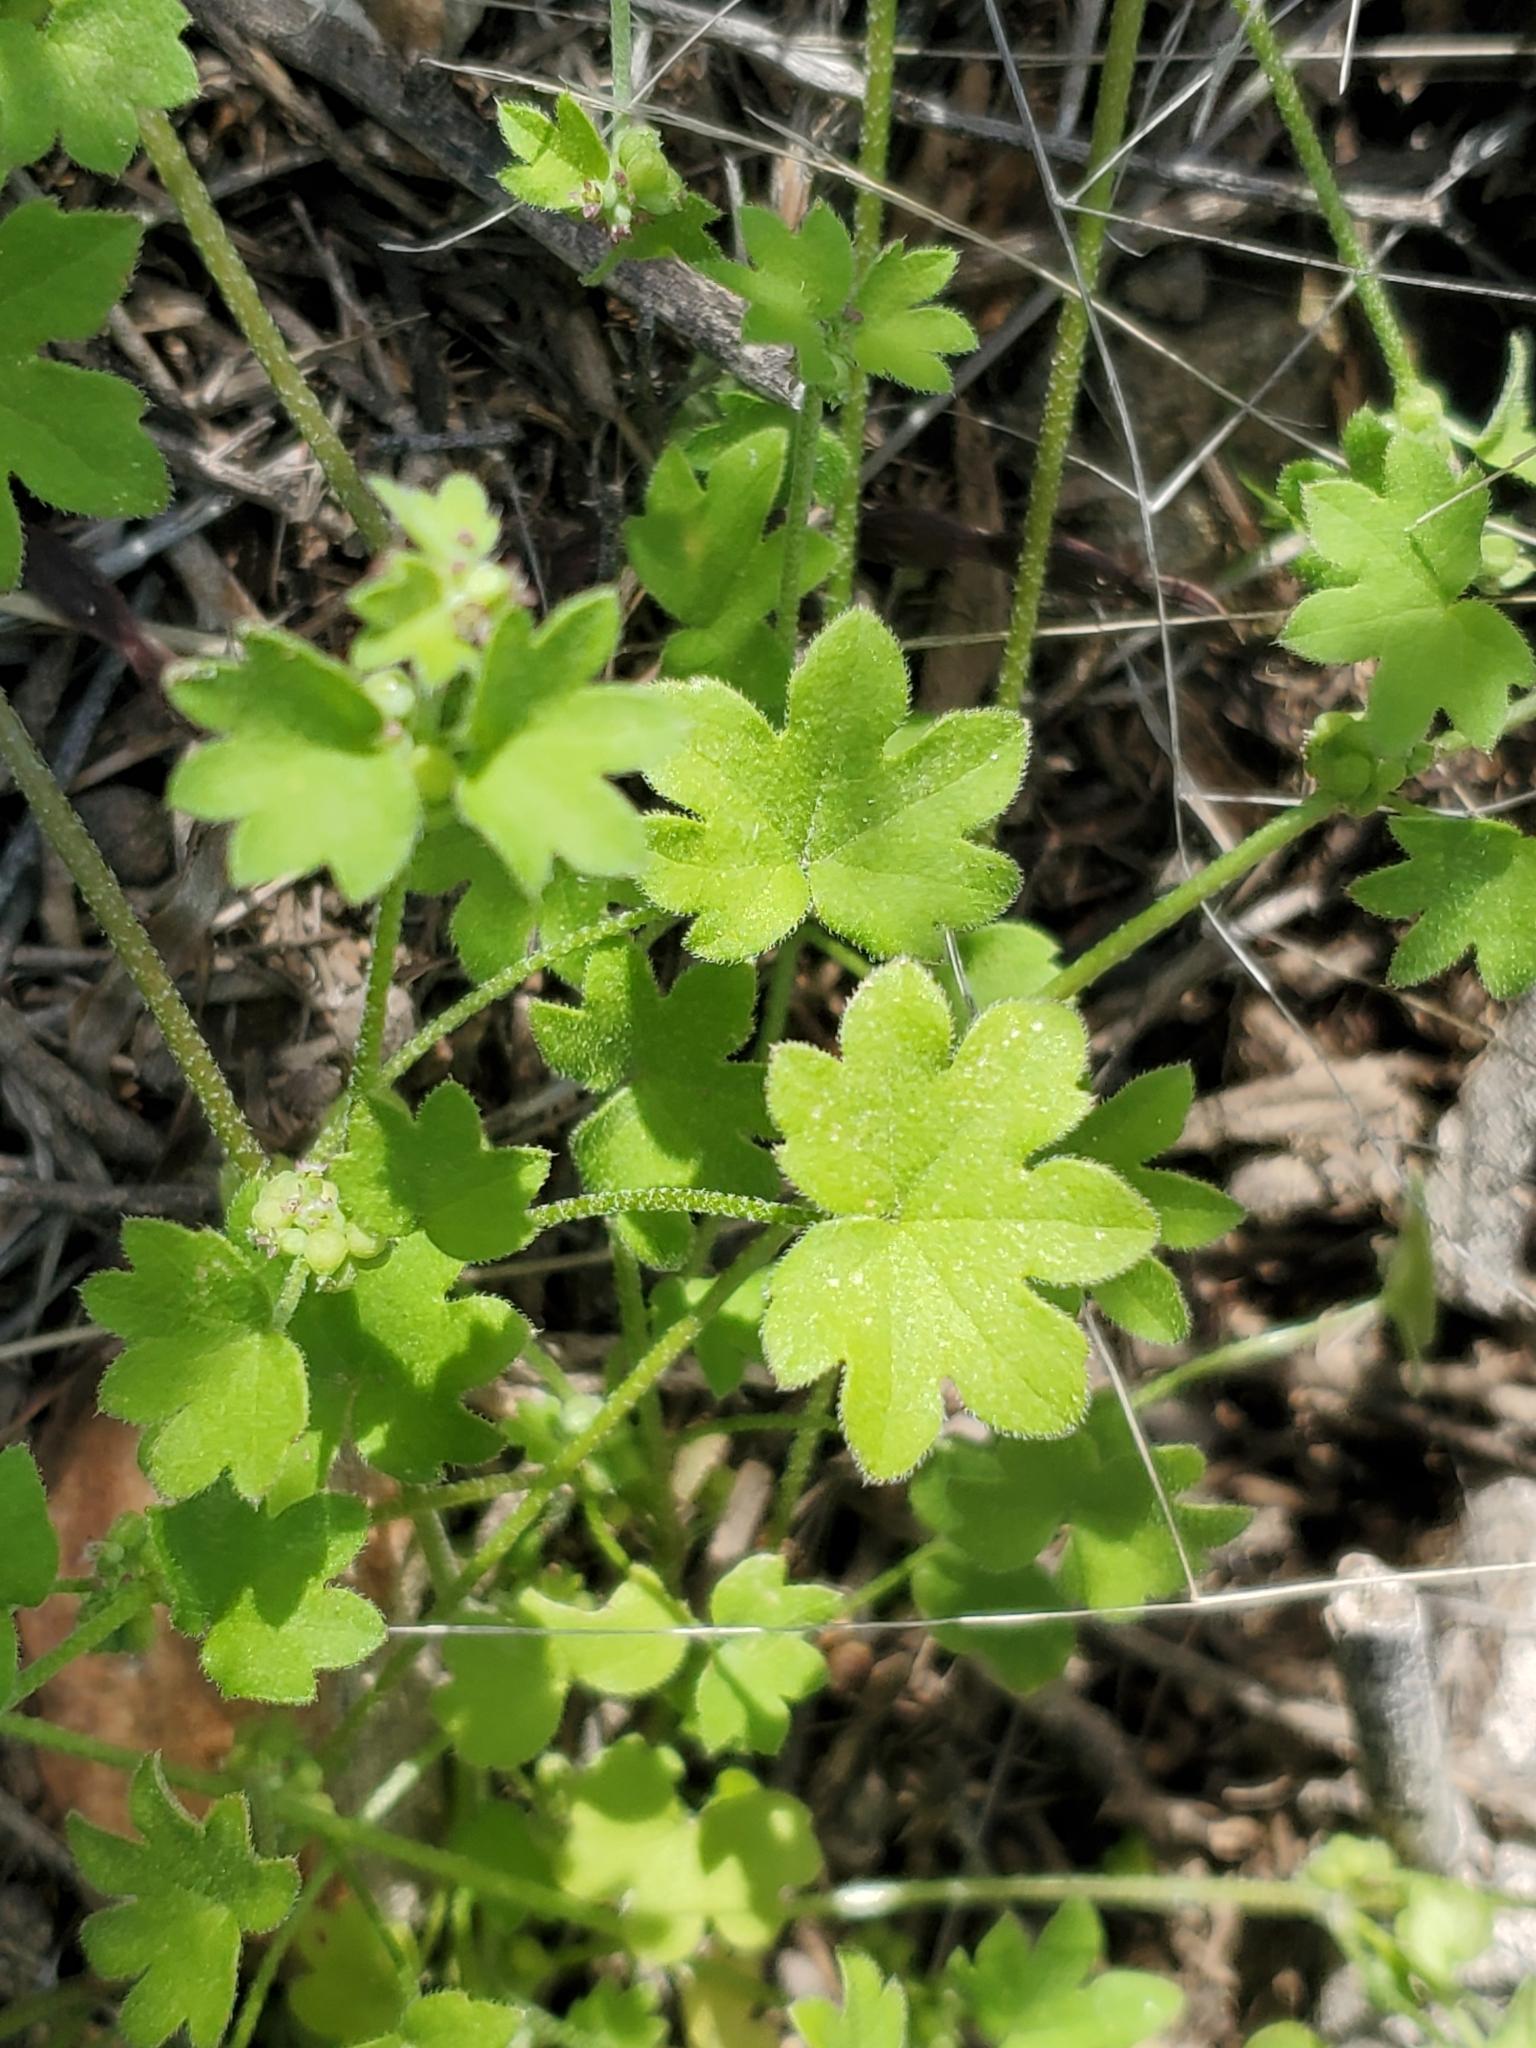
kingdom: Plantae
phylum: Tracheophyta
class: Magnoliopsida
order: Apiales
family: Apiaceae
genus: Bowlesia
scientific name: Bowlesia incana
